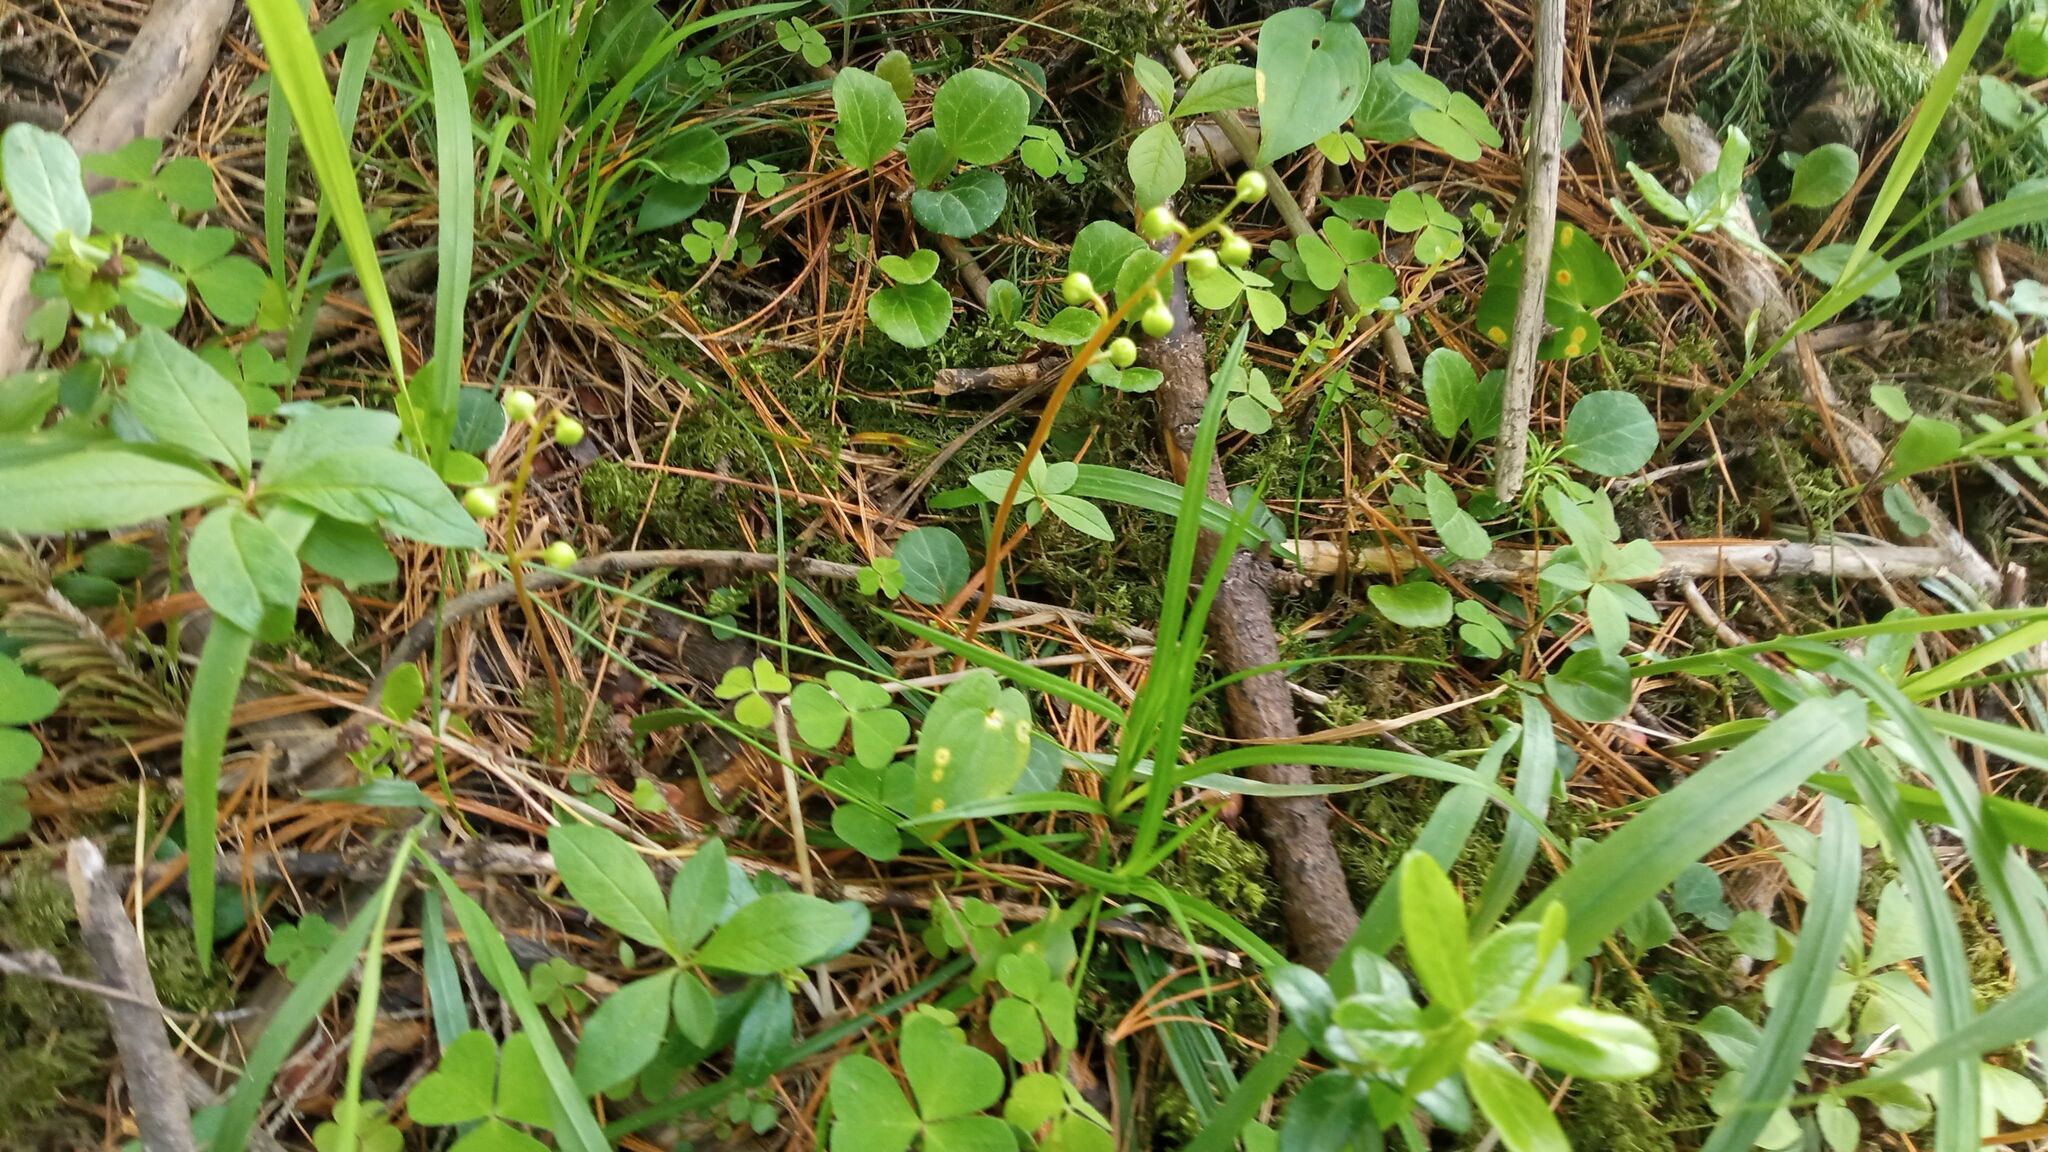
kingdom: Plantae
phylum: Tracheophyta
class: Magnoliopsida
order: Ericales
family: Ericaceae
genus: Pyrola
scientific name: Pyrola chlorantha
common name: Green wintergreen
